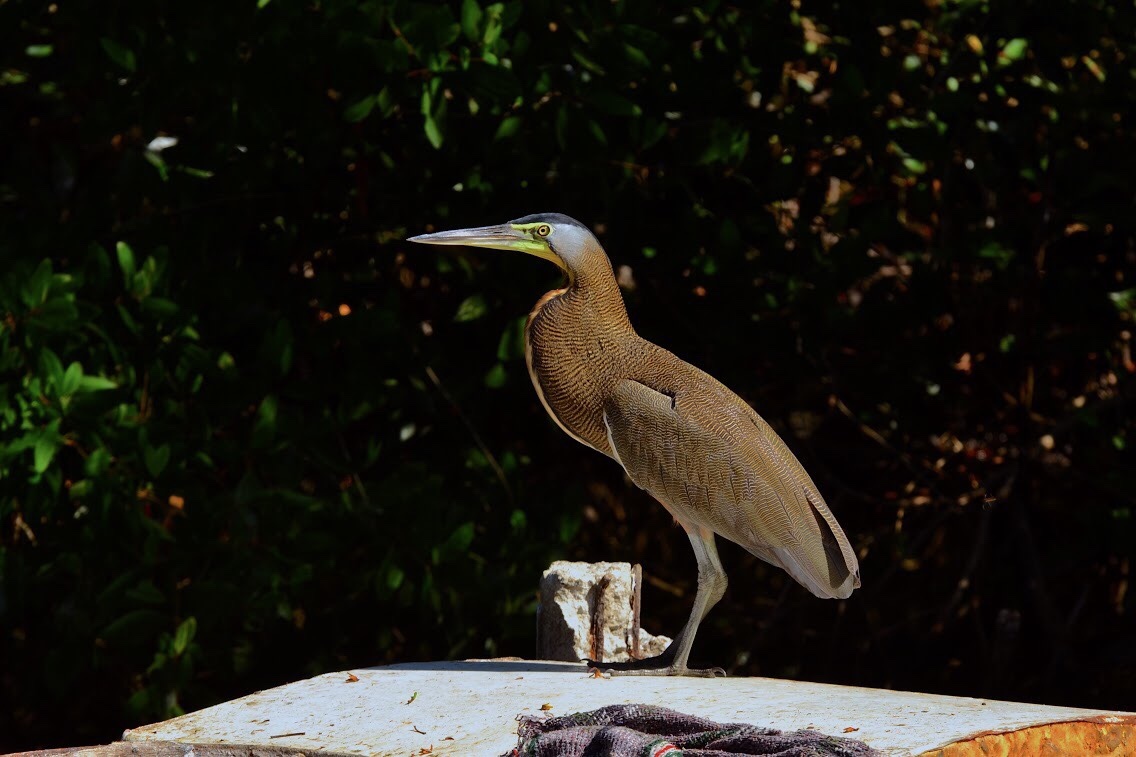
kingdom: Animalia
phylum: Chordata
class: Aves
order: Pelecaniformes
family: Ardeidae
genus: Tigrisoma
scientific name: Tigrisoma mexicanum
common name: Bare-throated tiger-heron
